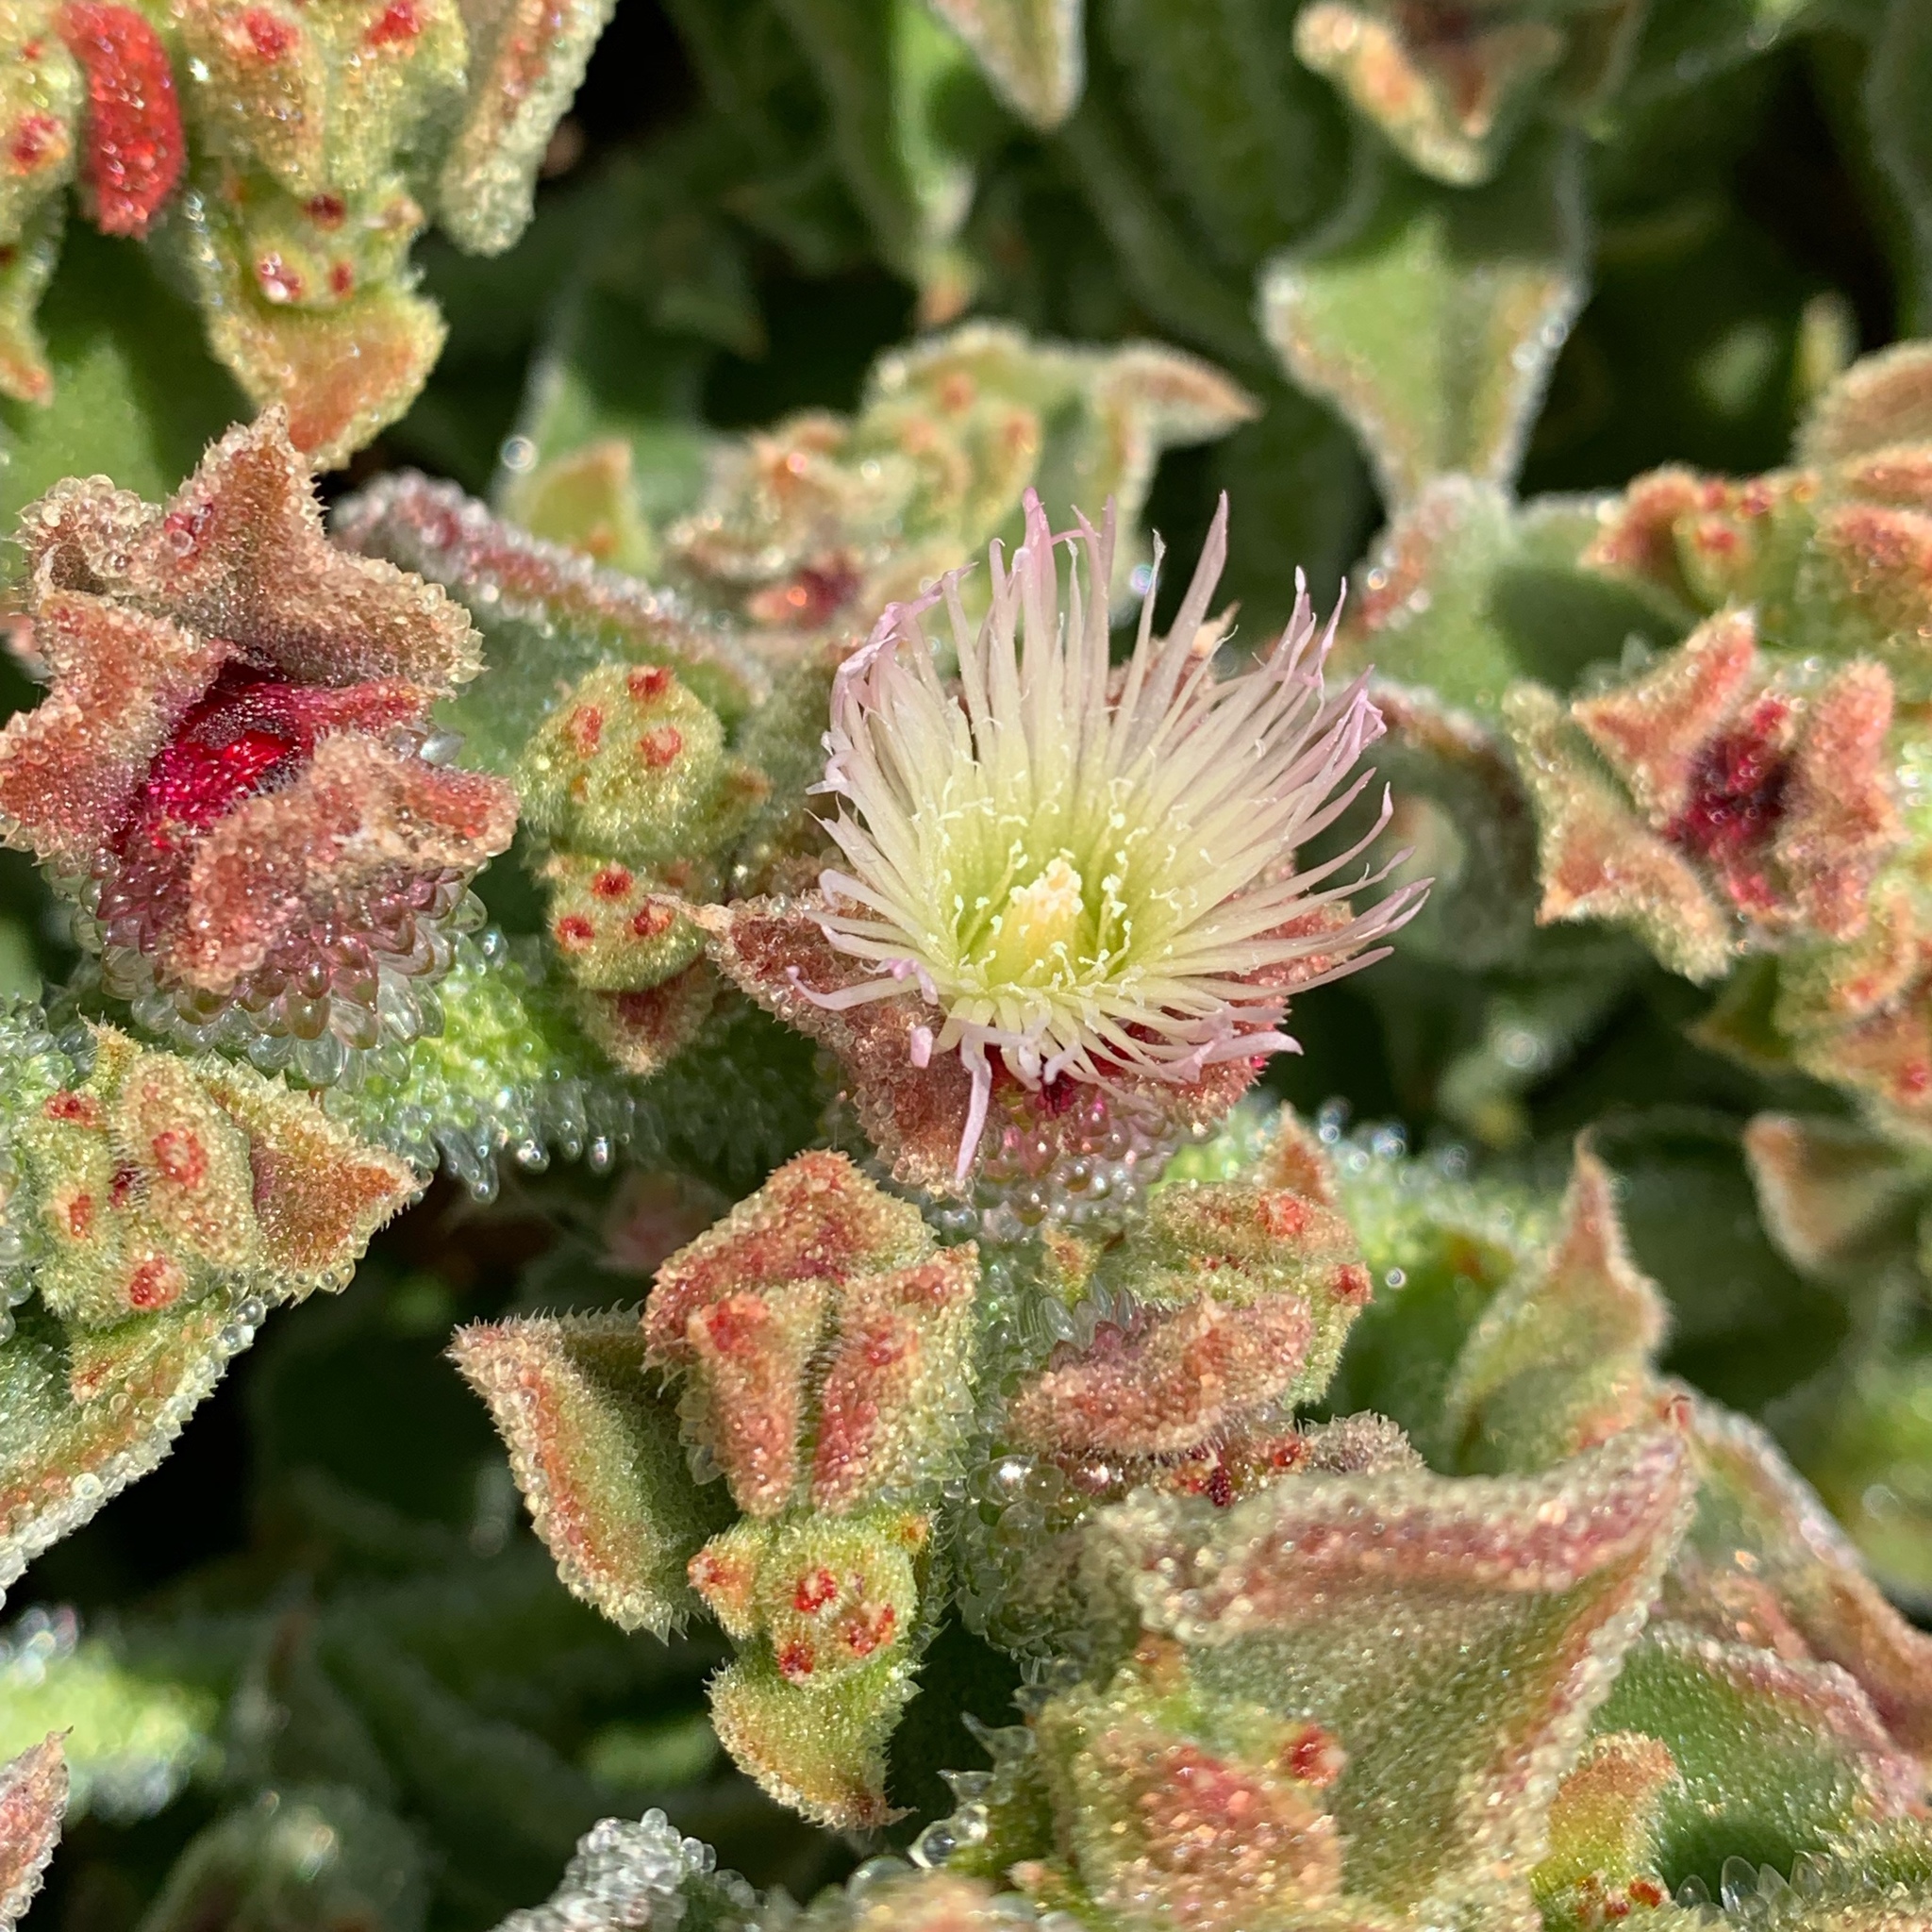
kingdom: Plantae
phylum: Tracheophyta
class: Magnoliopsida
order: Caryophyllales
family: Aizoaceae
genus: Mesembryanthemum
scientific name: Mesembryanthemum crystallinum
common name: Common iceplant
